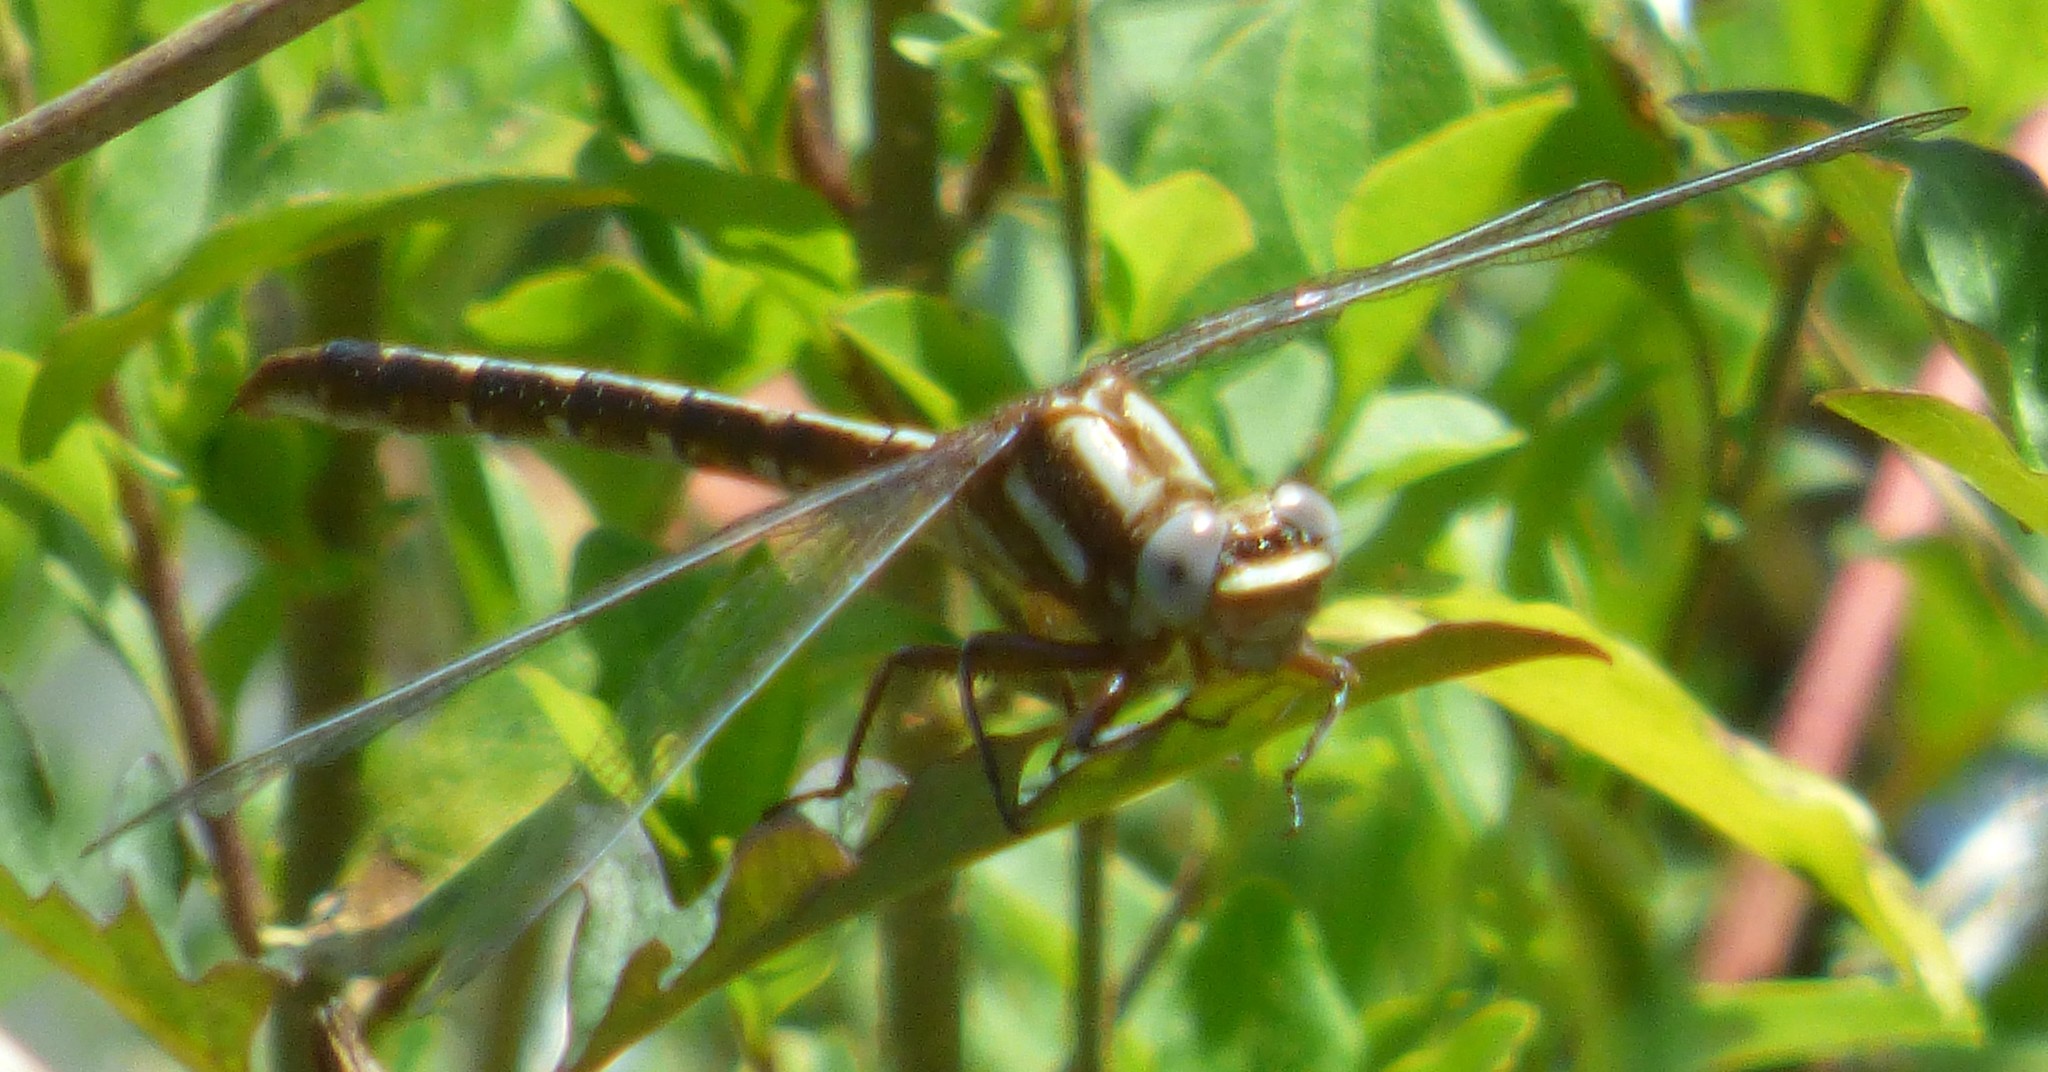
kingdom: Animalia
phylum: Arthropoda
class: Insecta
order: Odonata
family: Gomphidae
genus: Phanogomphus
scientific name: Phanogomphus lividus
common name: Ashy clubtail
